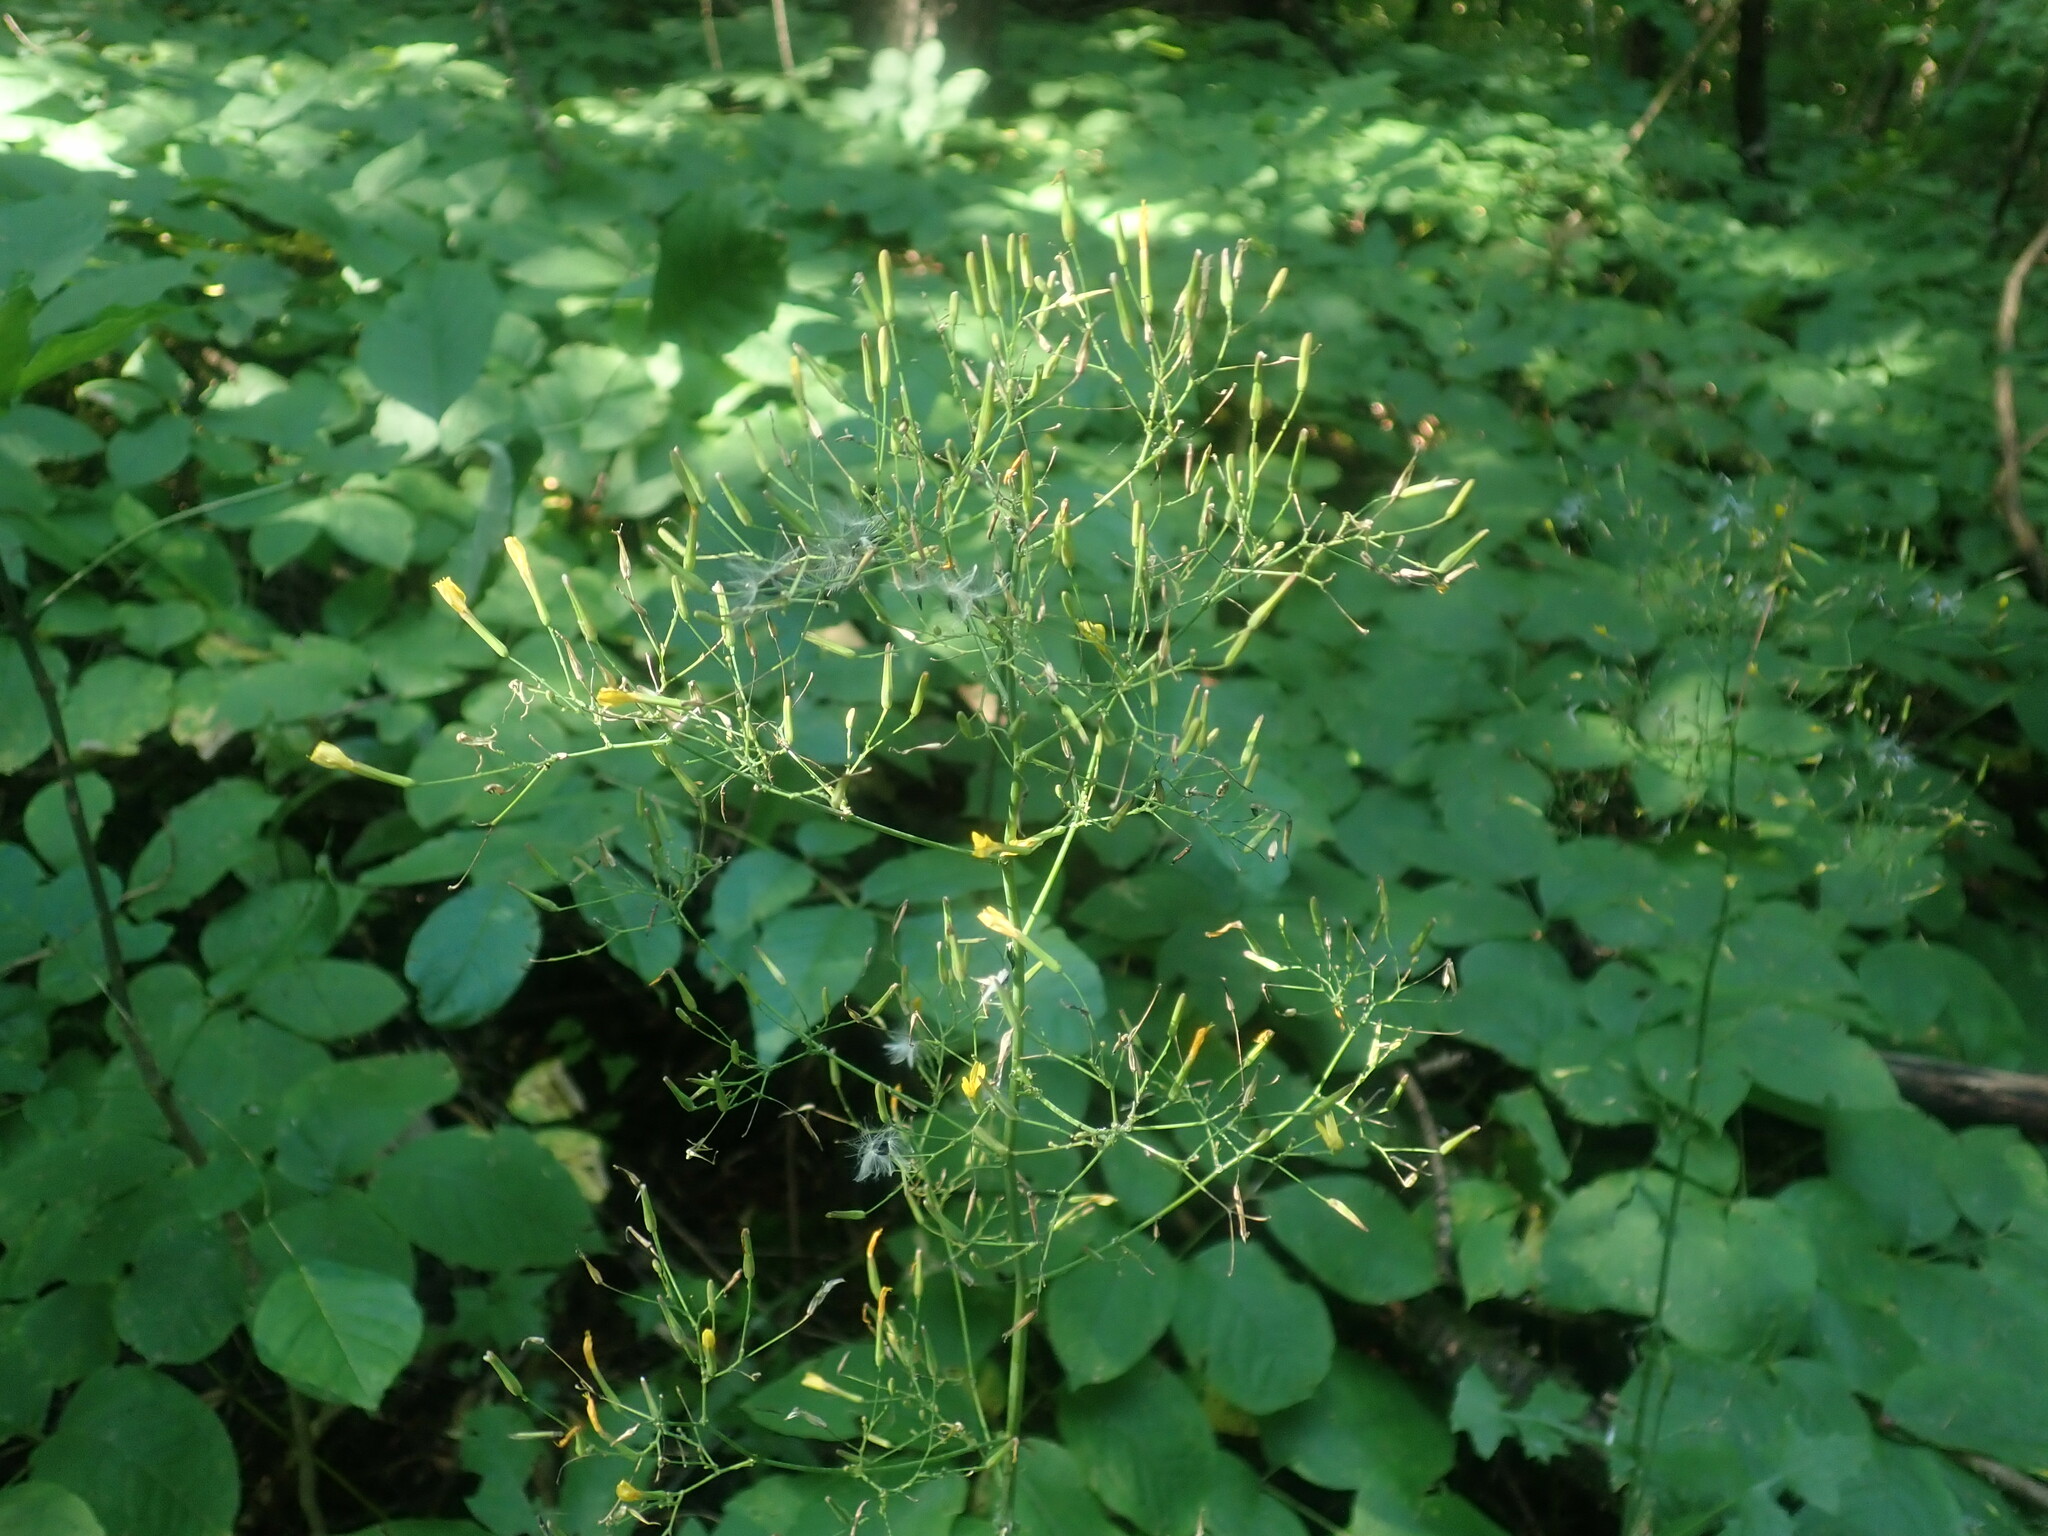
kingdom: Plantae
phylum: Tracheophyta
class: Magnoliopsida
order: Asterales
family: Asteraceae
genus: Mycelis
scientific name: Mycelis muralis
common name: Wall lettuce
